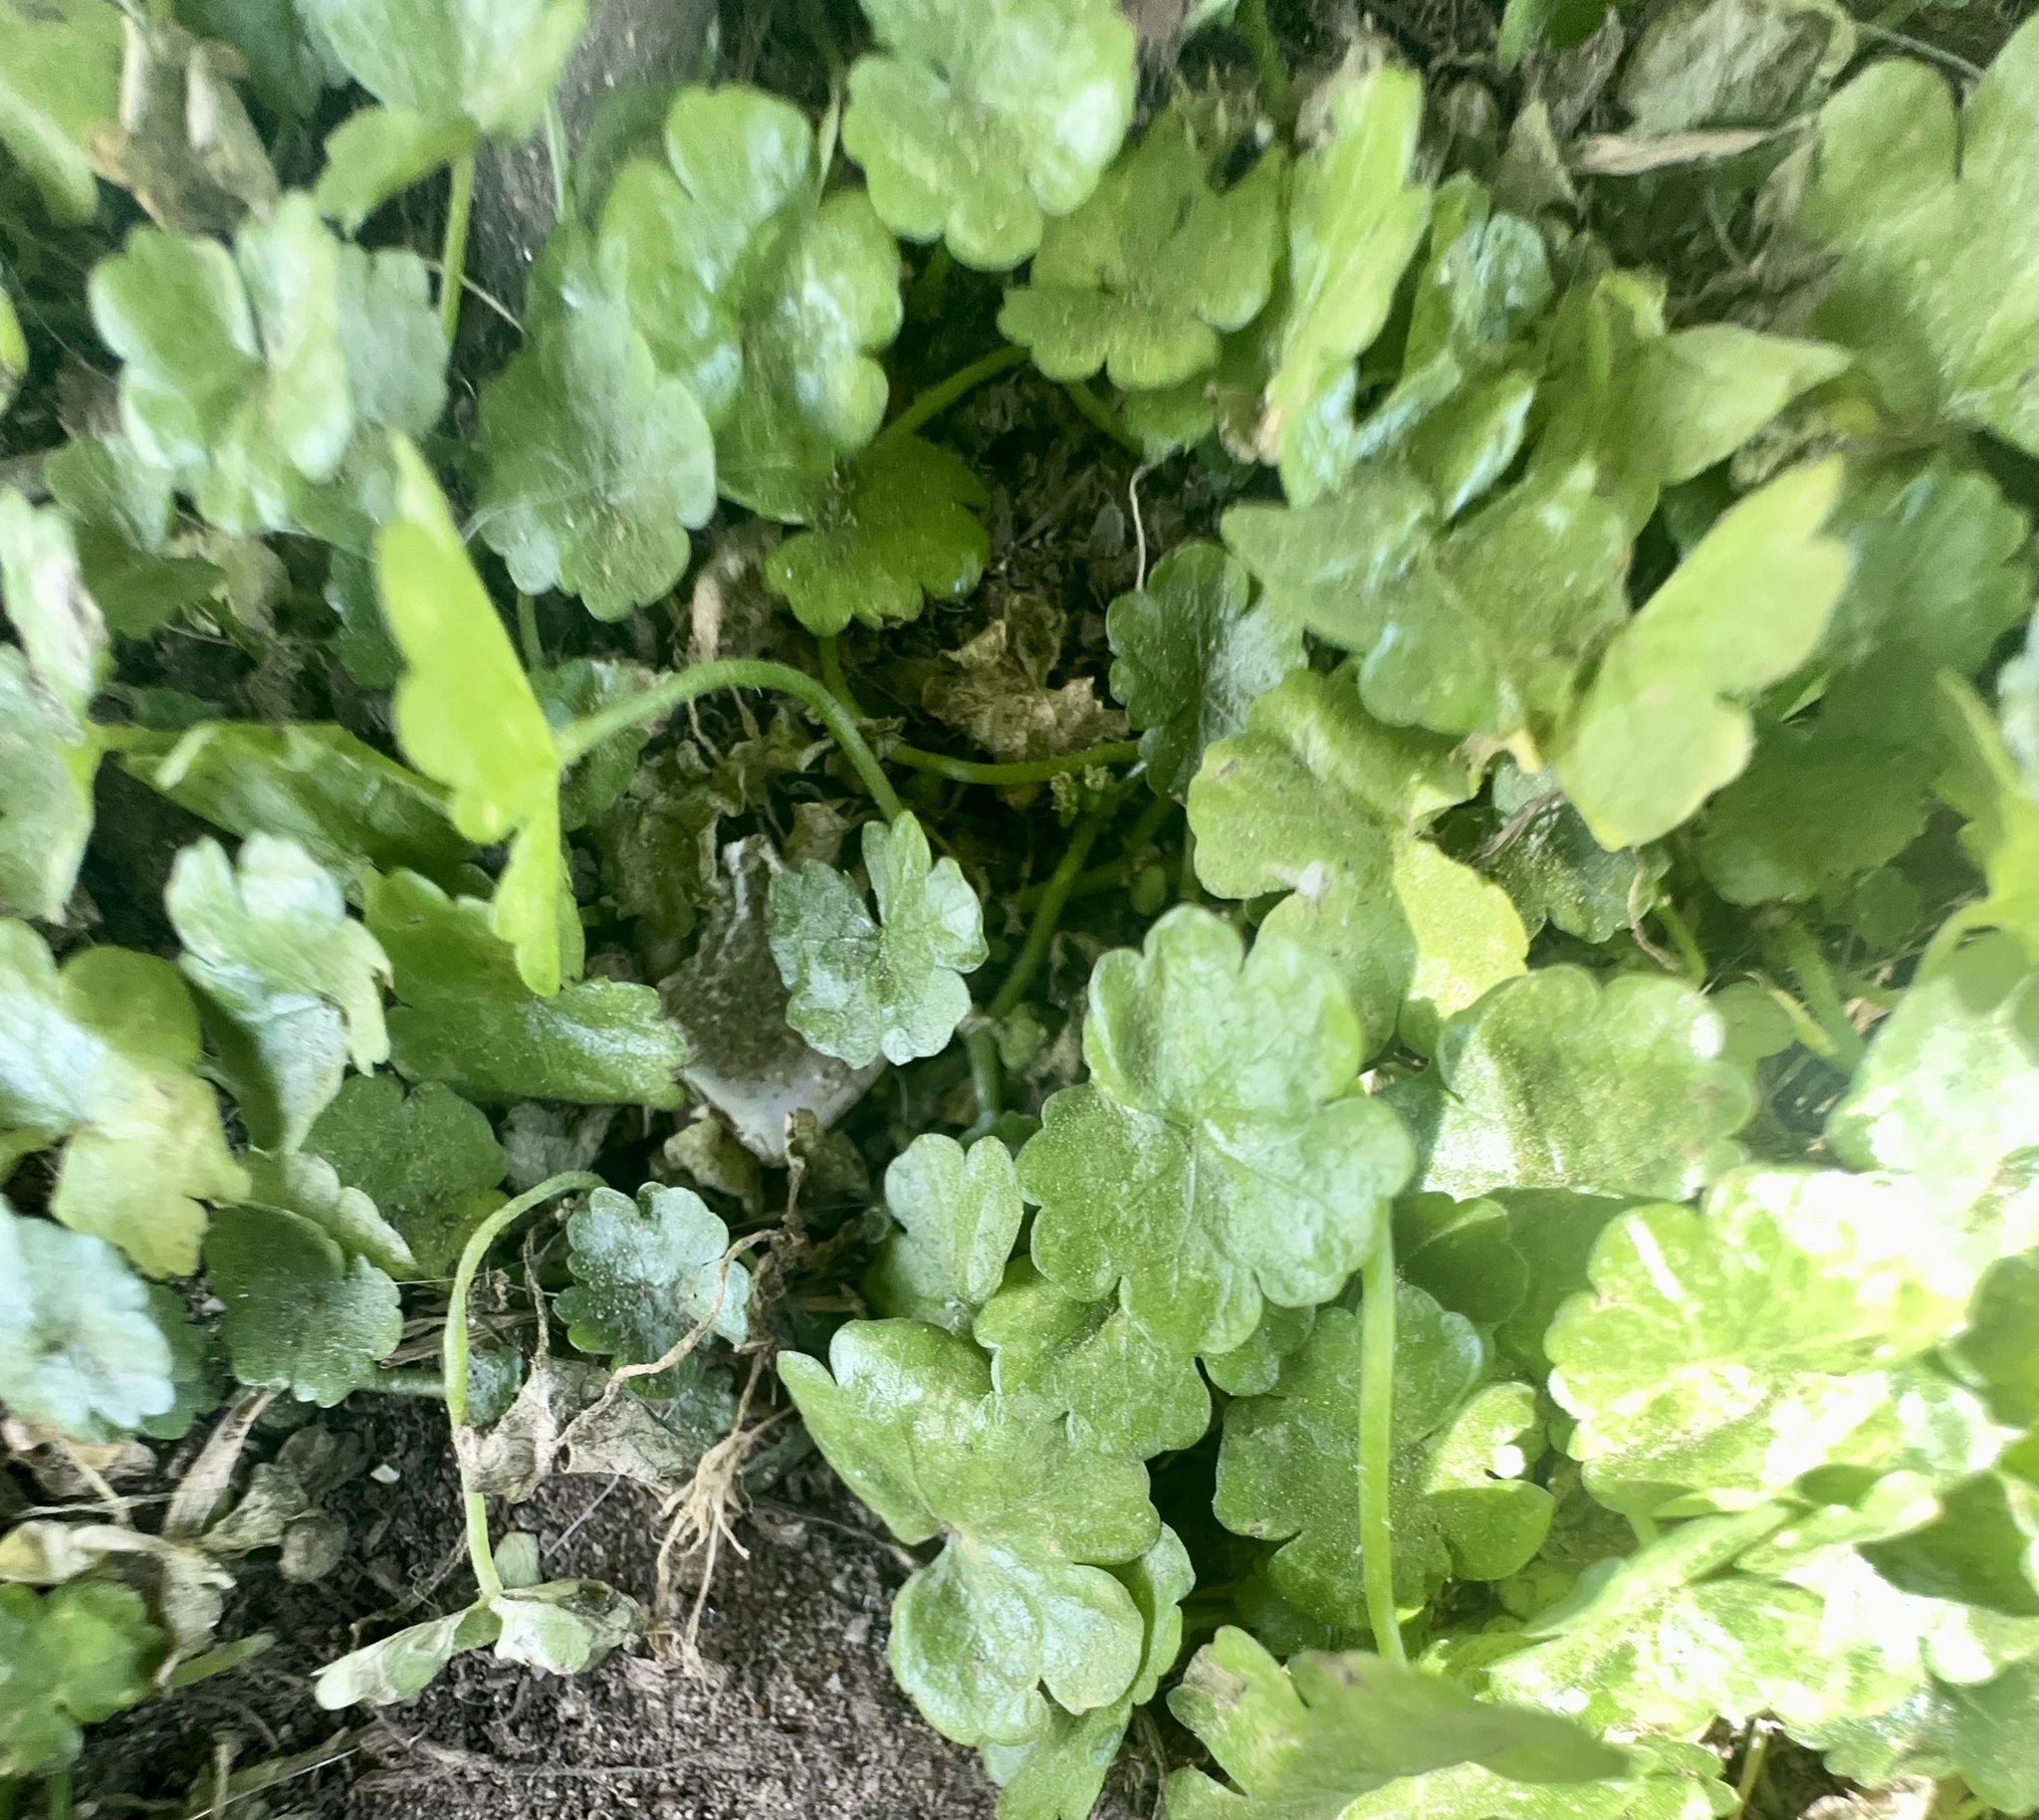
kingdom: Plantae
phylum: Tracheophyta
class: Magnoliopsida
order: Apiales
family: Araliaceae
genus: Hydrocotyle
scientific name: Hydrocotyle heteromeria
